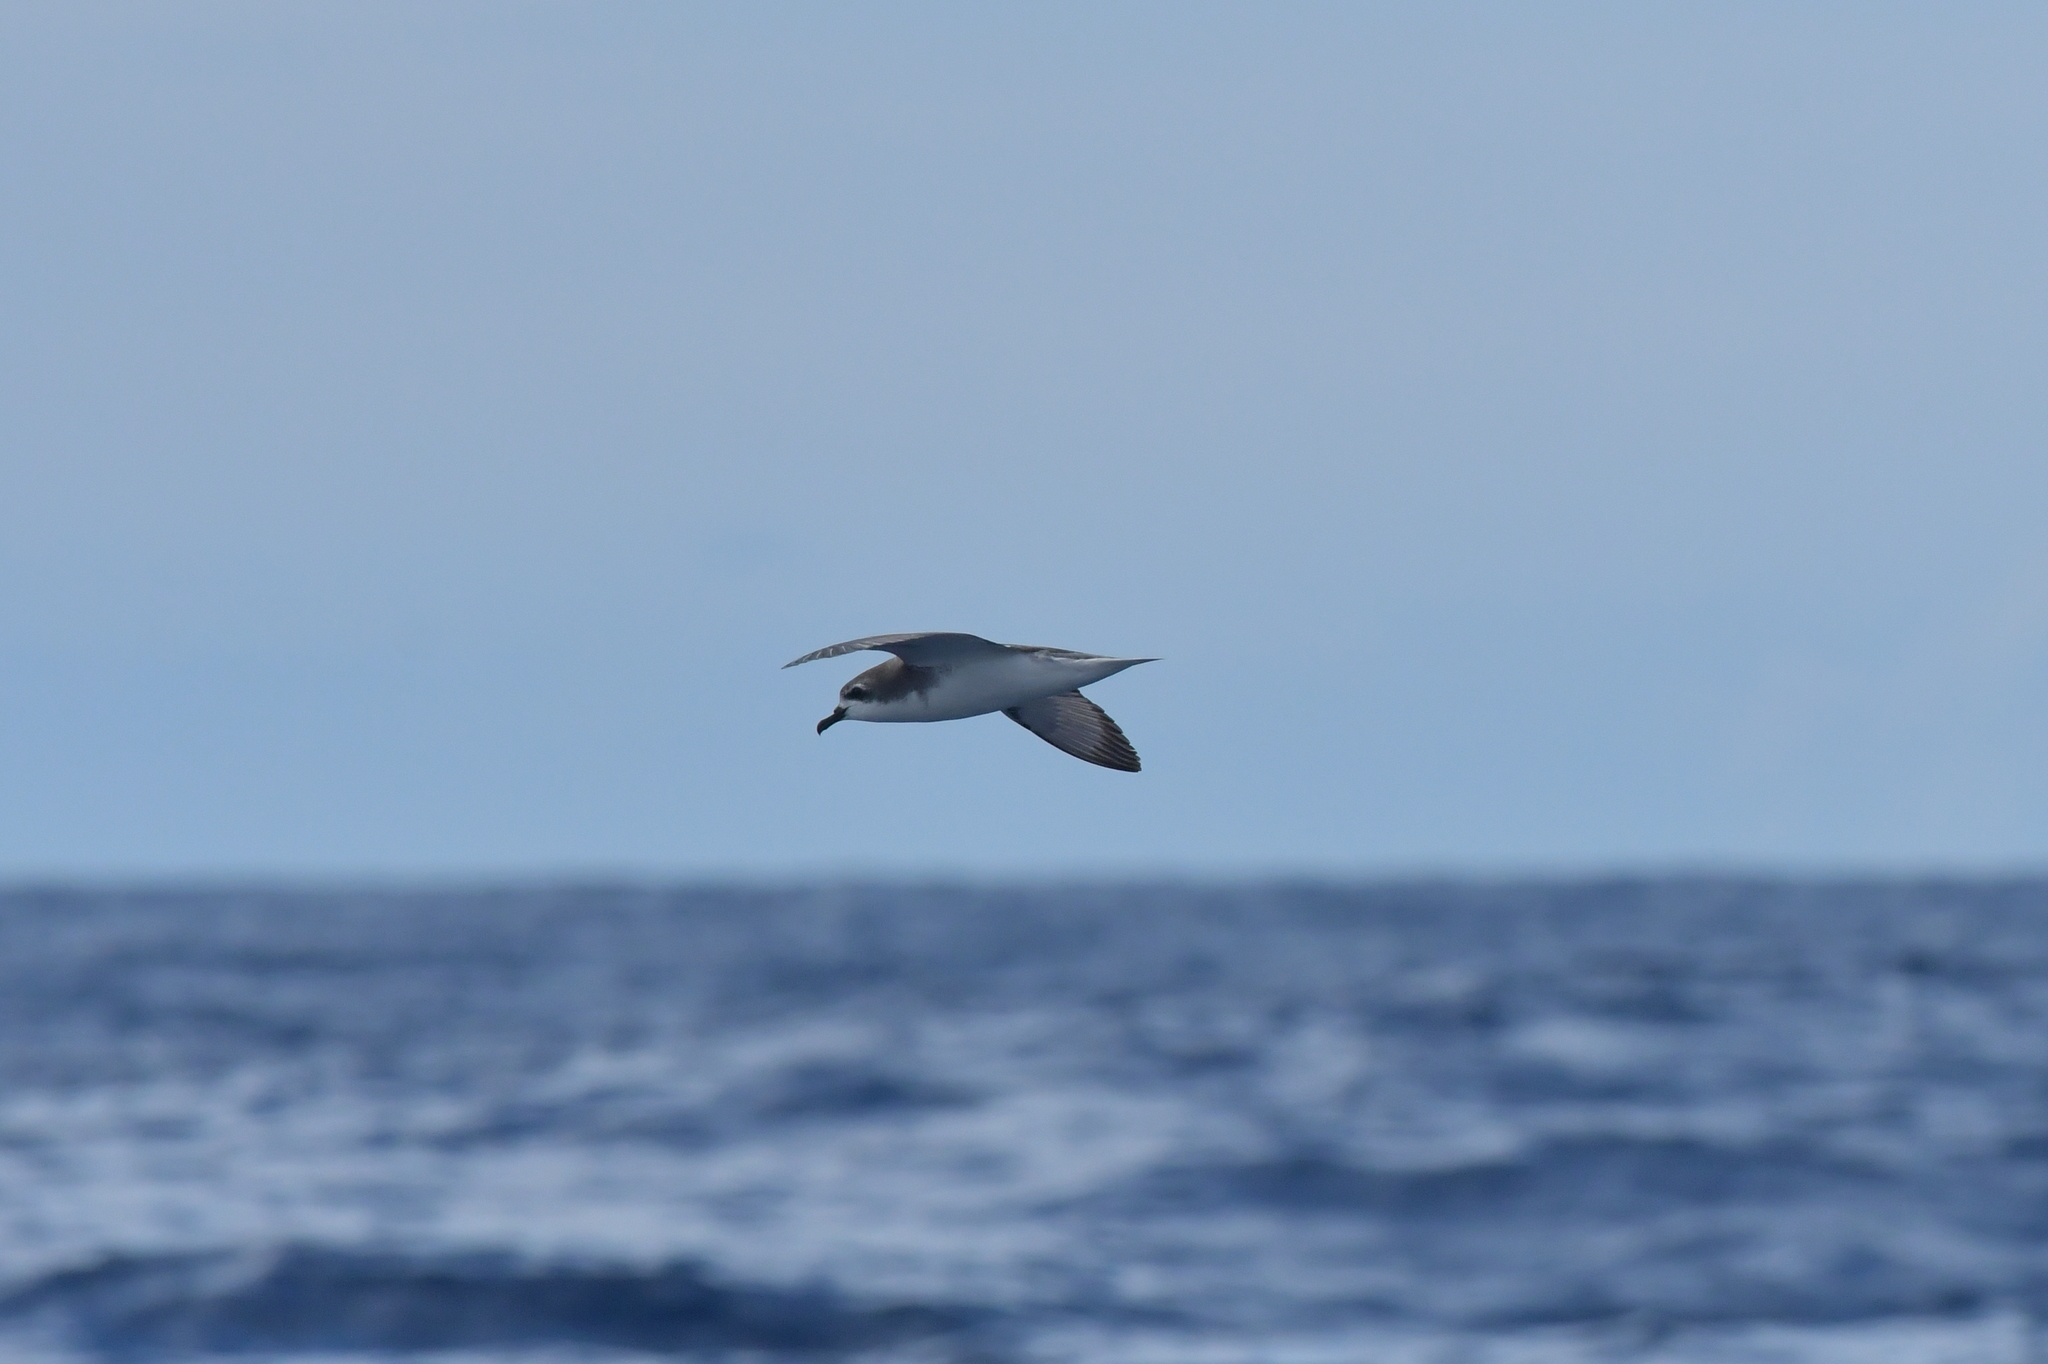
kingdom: Animalia
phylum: Chordata
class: Aves
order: Procellariiformes
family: Procellariidae
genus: Pterodroma
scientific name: Pterodroma cookii
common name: Cook's petrel
